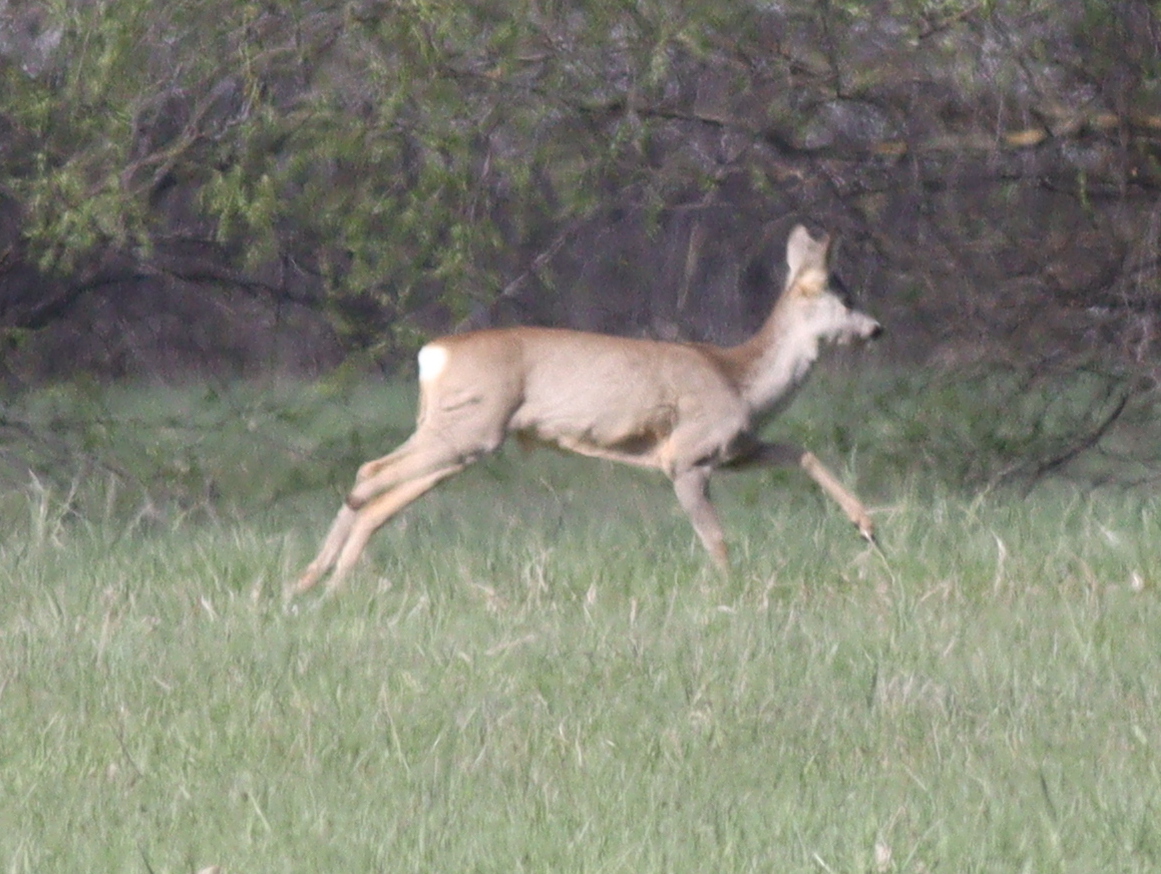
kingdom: Animalia
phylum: Chordata
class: Mammalia
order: Artiodactyla
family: Cervidae
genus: Capreolus
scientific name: Capreolus capreolus
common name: Western roe deer
